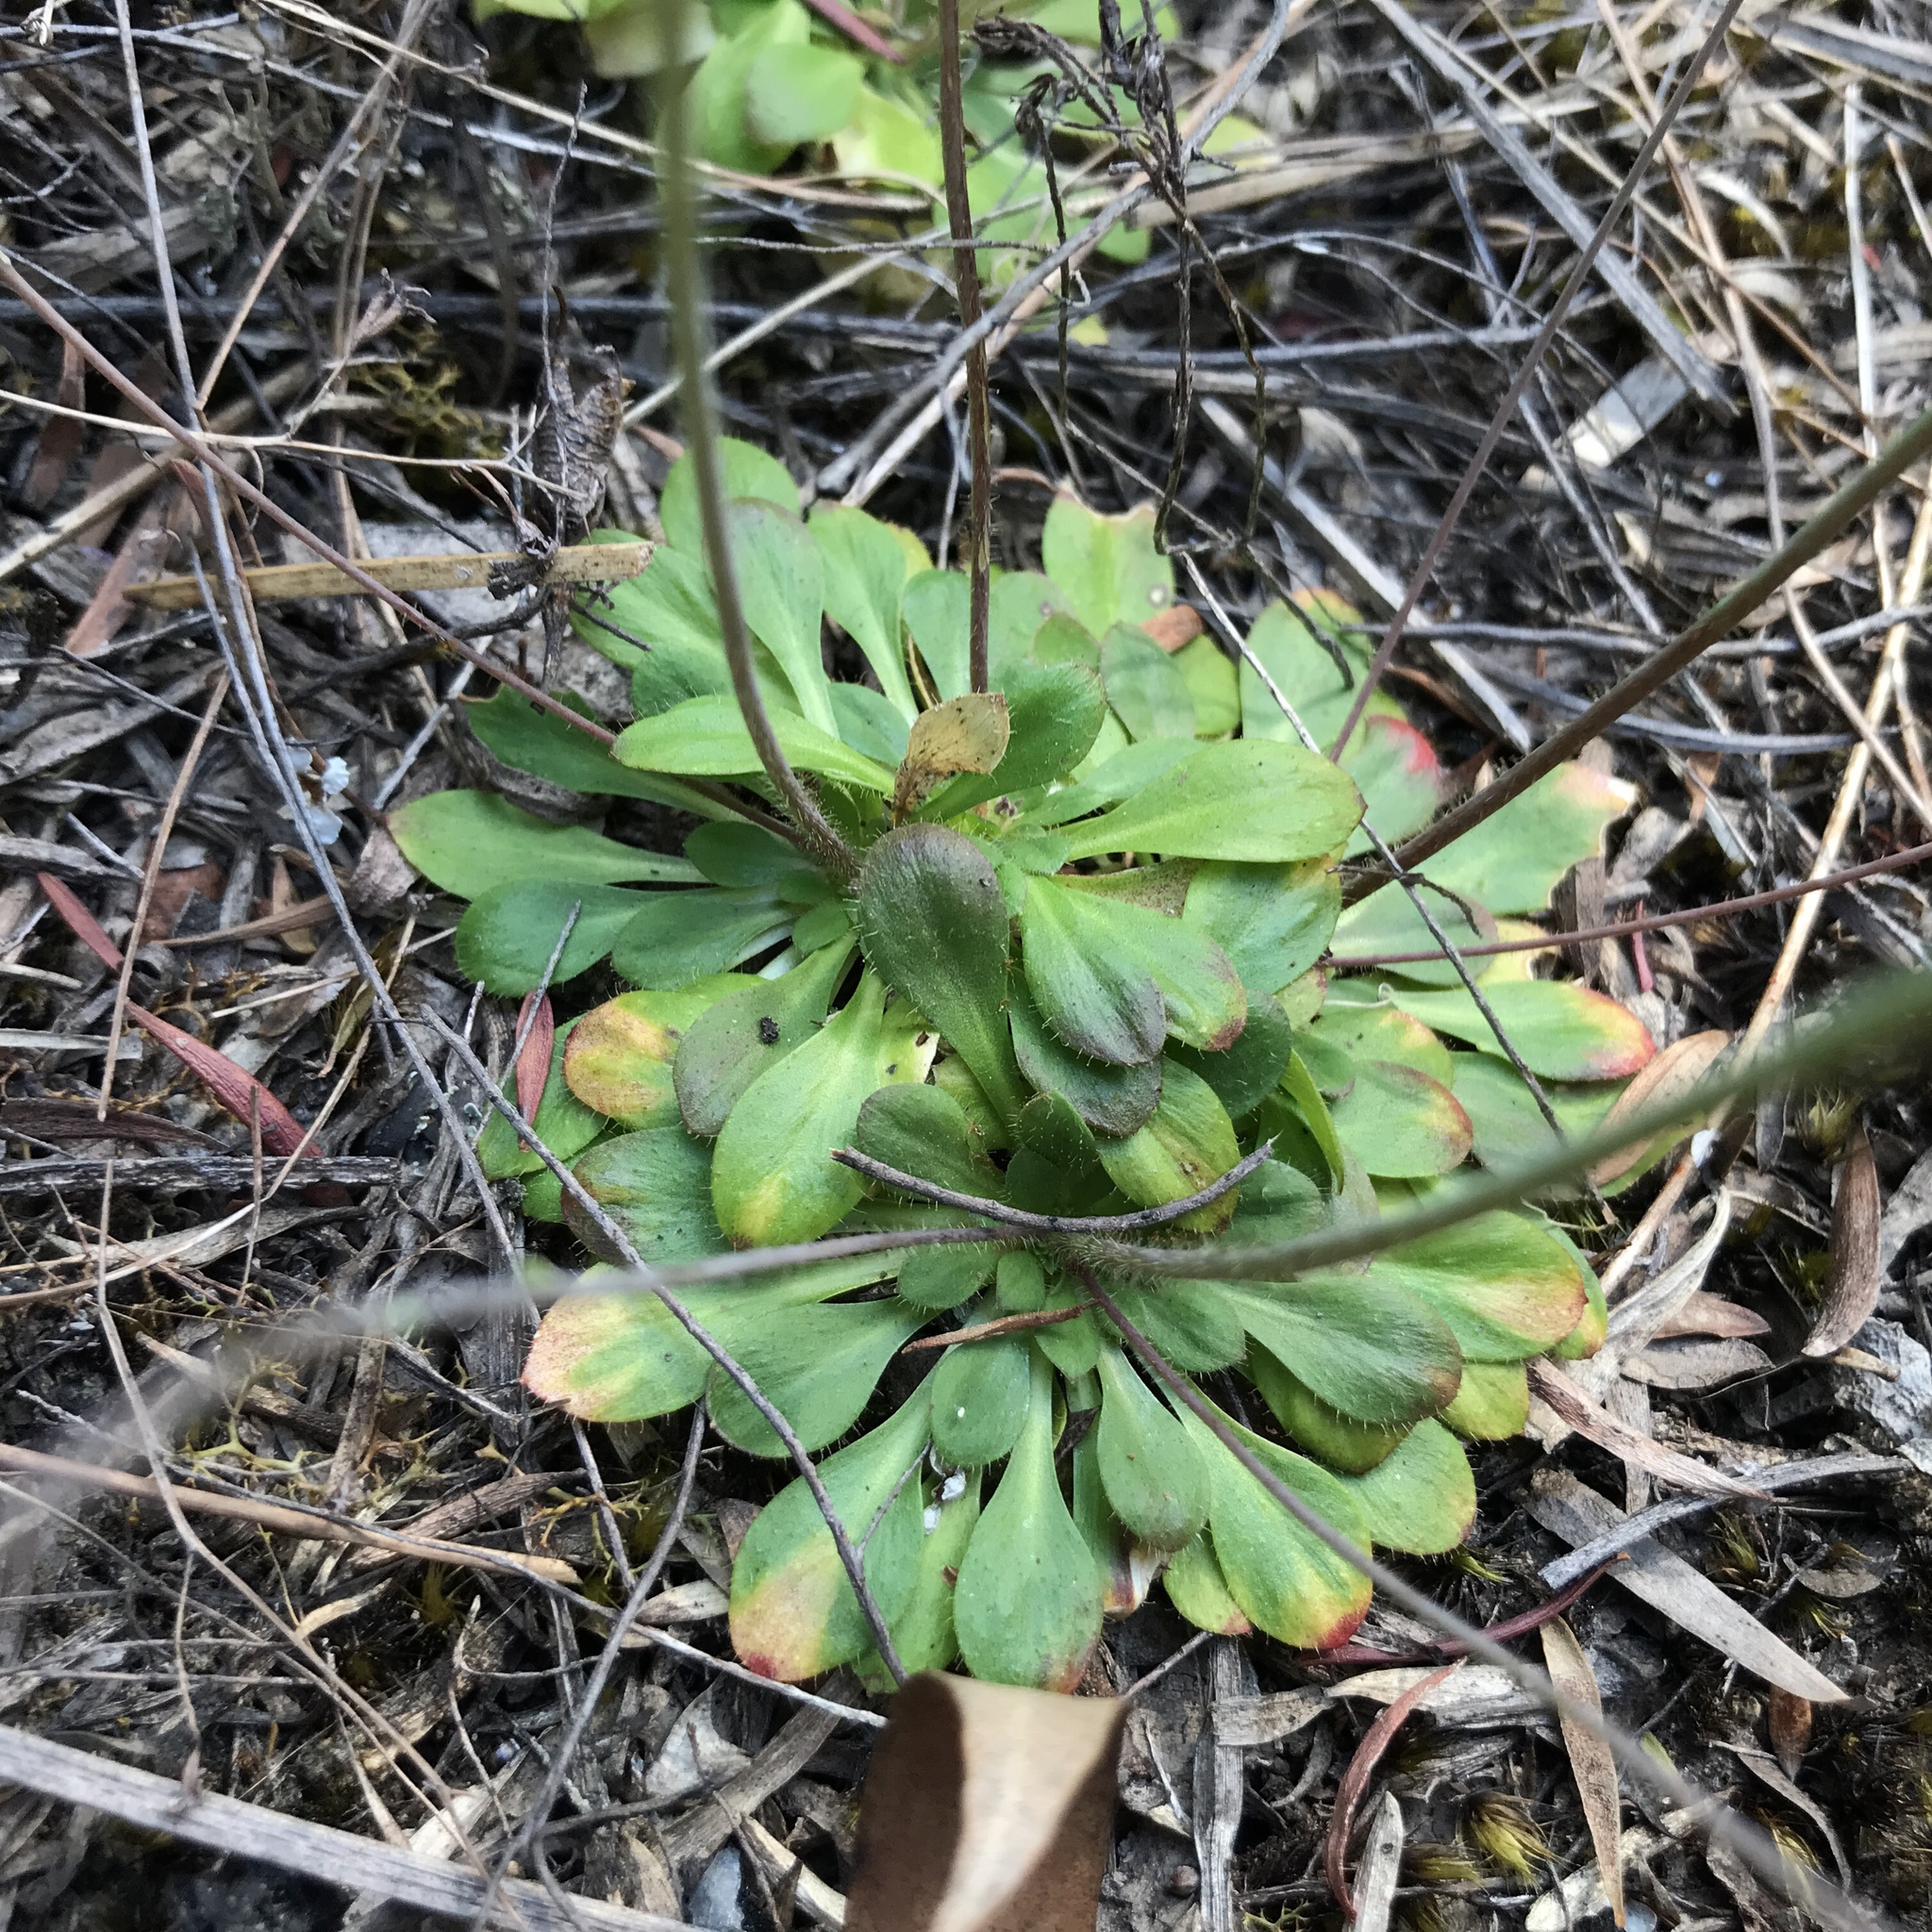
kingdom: Plantae
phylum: Tracheophyta
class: Magnoliopsida
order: Asterales
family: Stylidiaceae
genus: Stylidium
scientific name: Stylidium spathulatum
